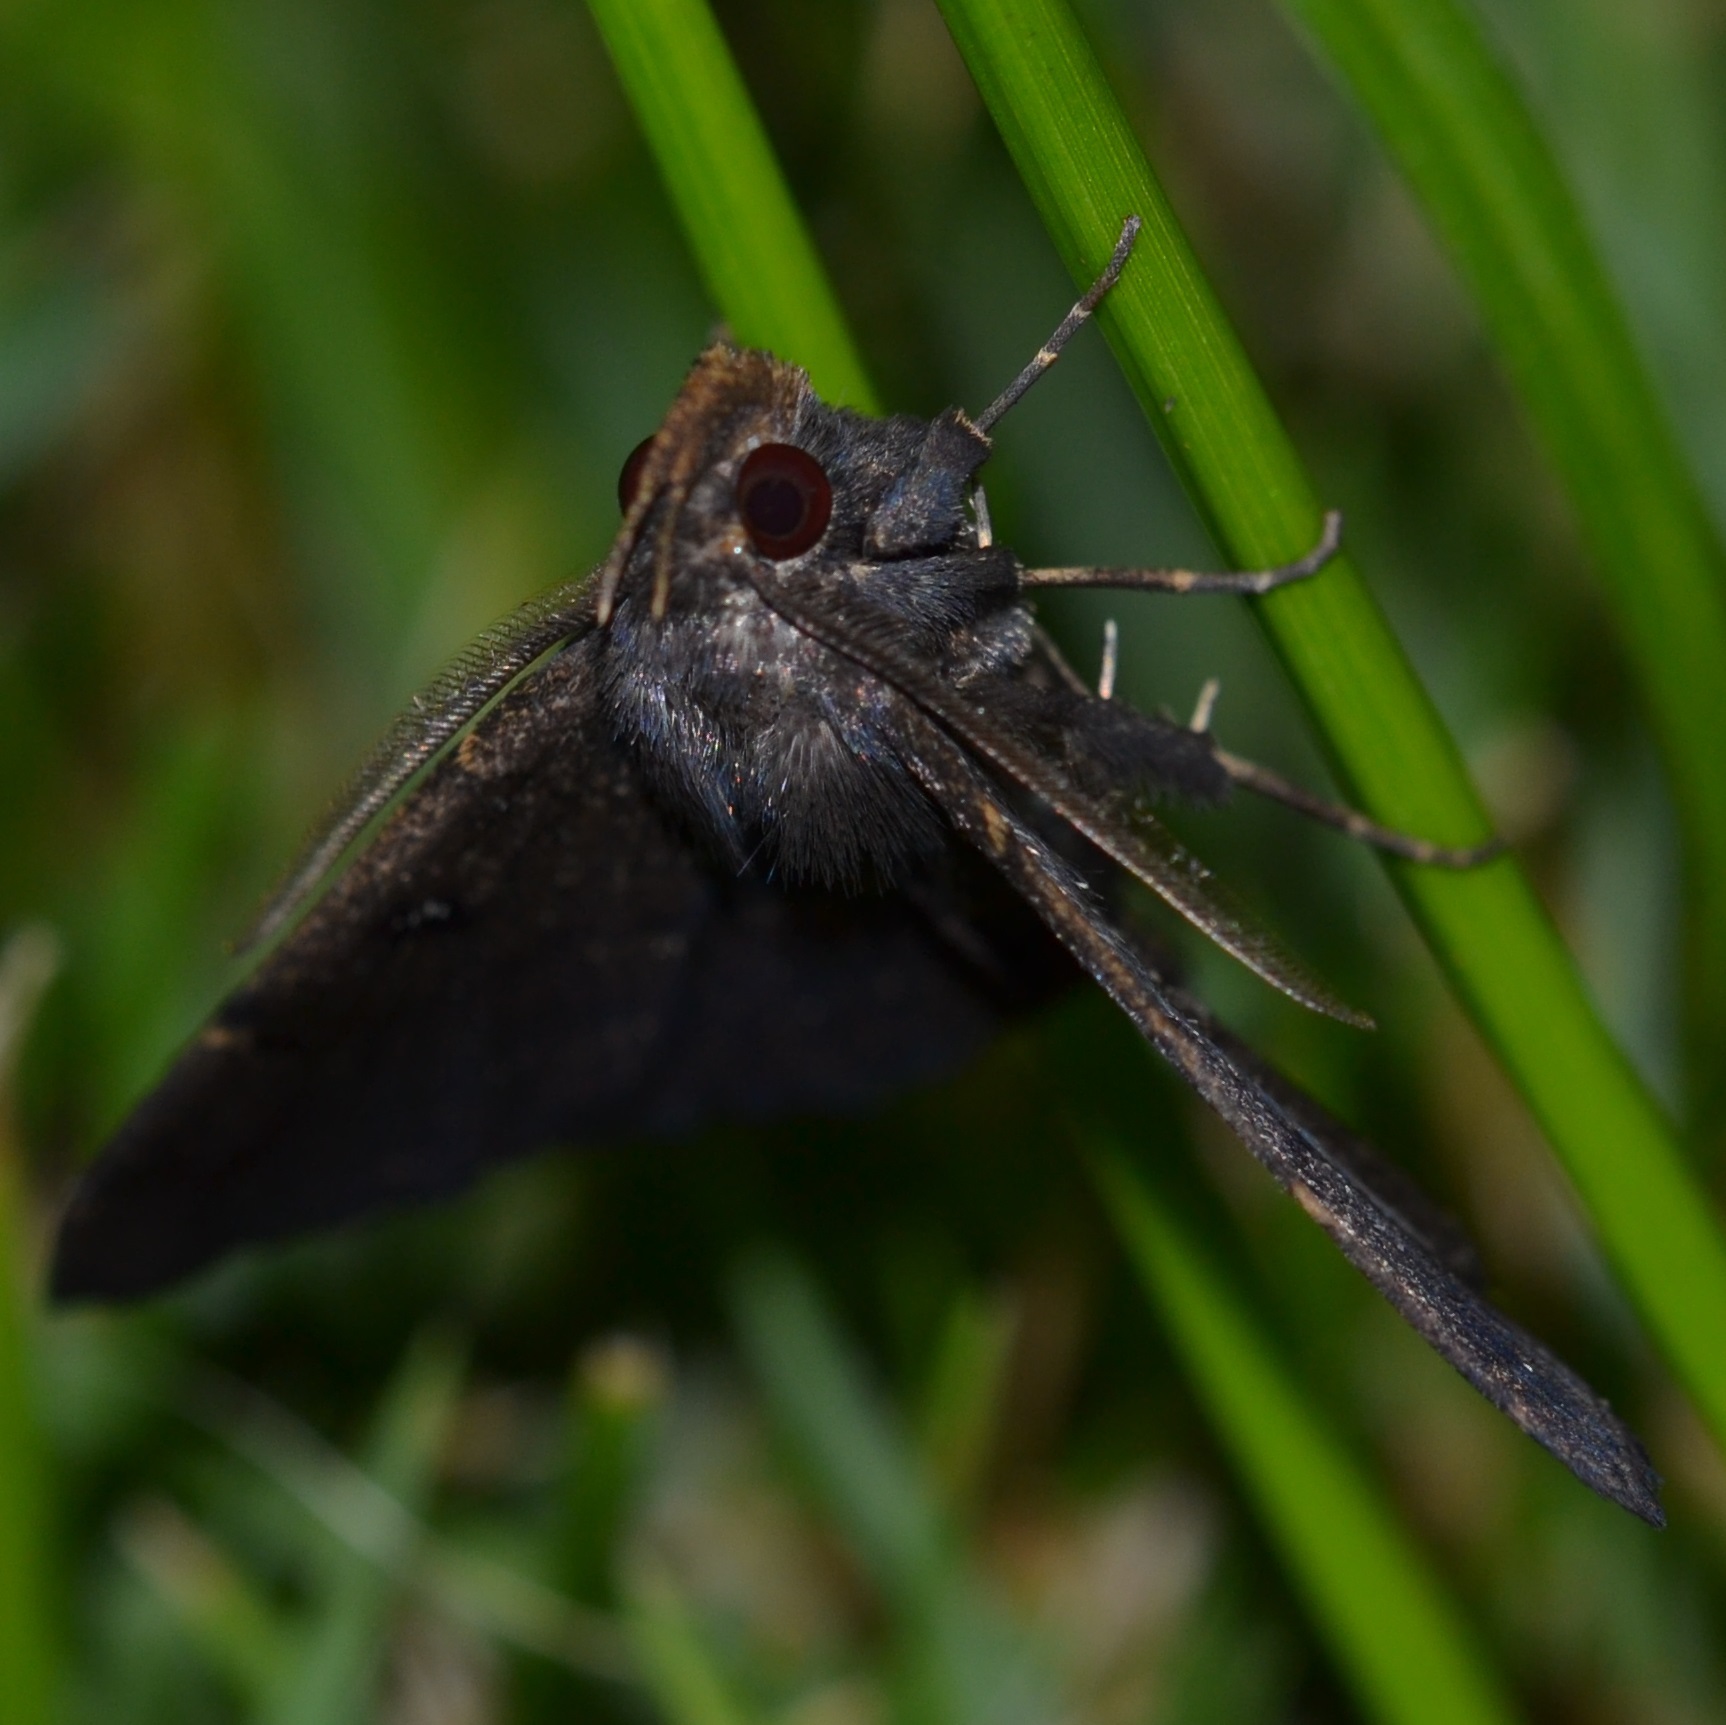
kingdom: Animalia
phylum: Arthropoda
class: Insecta
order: Lepidoptera
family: Erebidae
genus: Bocana
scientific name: Bocana manifestalis
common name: Moth
